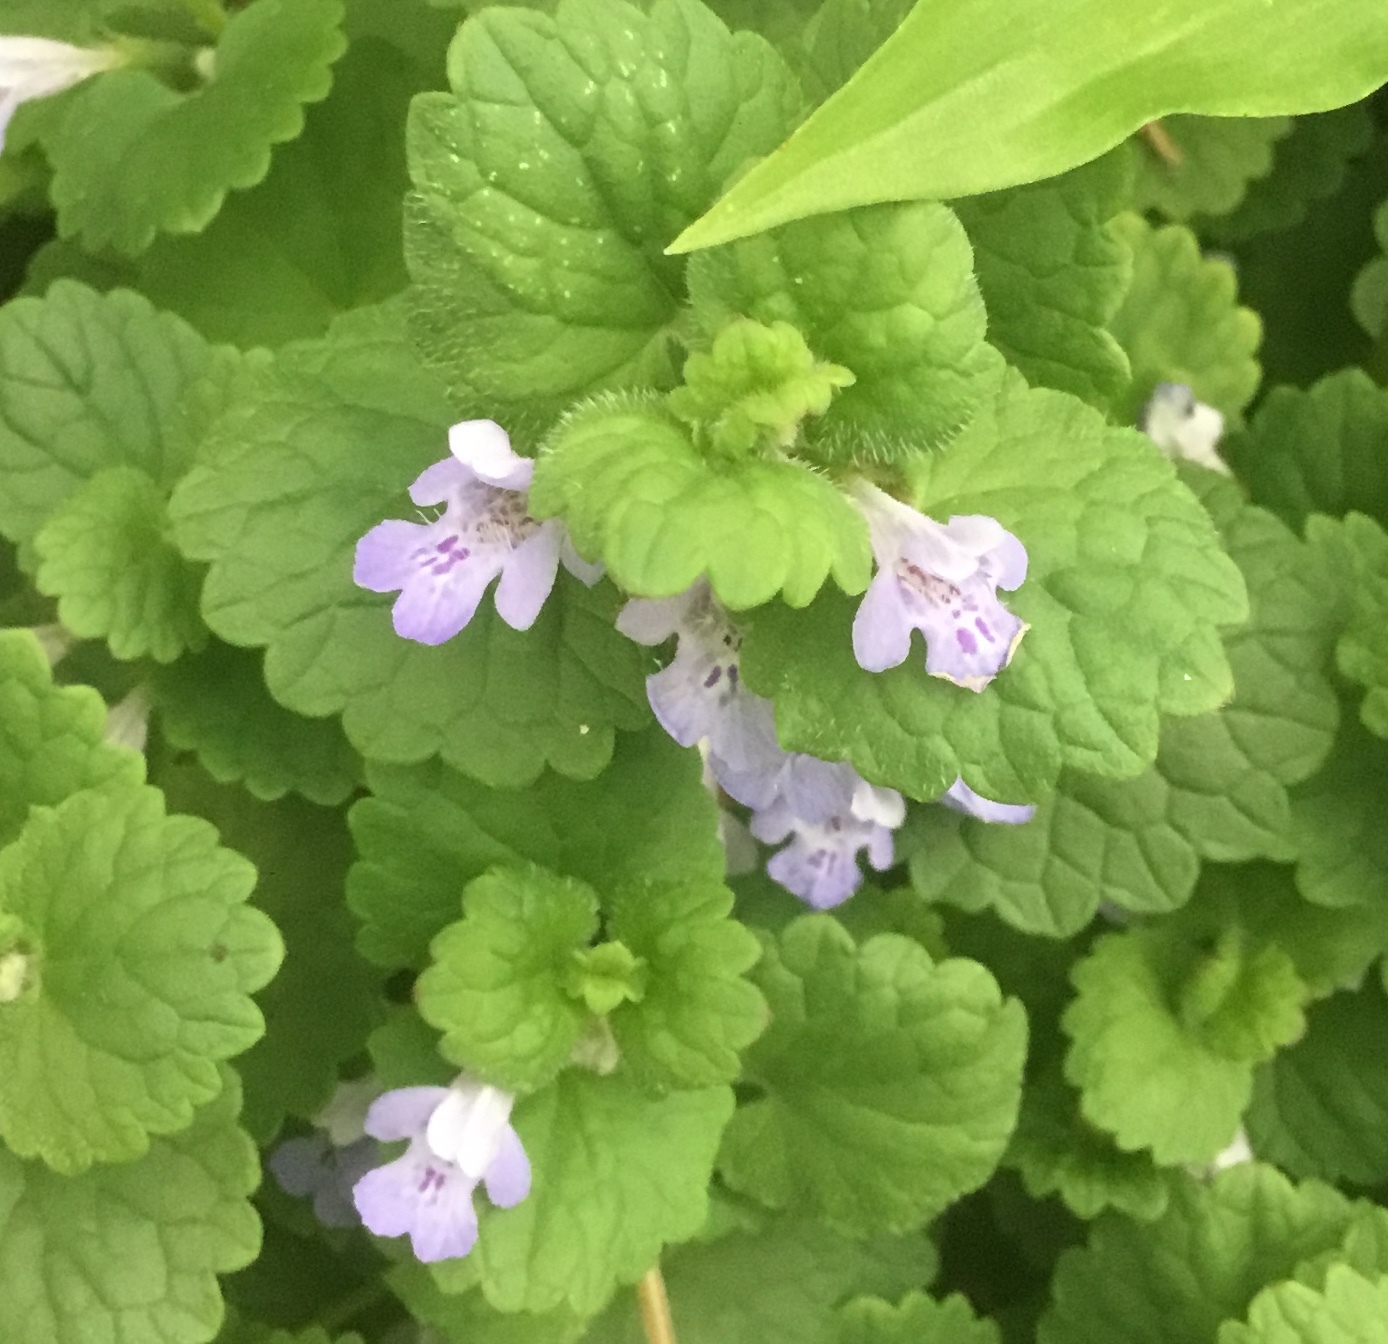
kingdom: Plantae
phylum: Tracheophyta
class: Magnoliopsida
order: Lamiales
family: Lamiaceae
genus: Glechoma
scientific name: Glechoma hederacea
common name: Ground ivy
